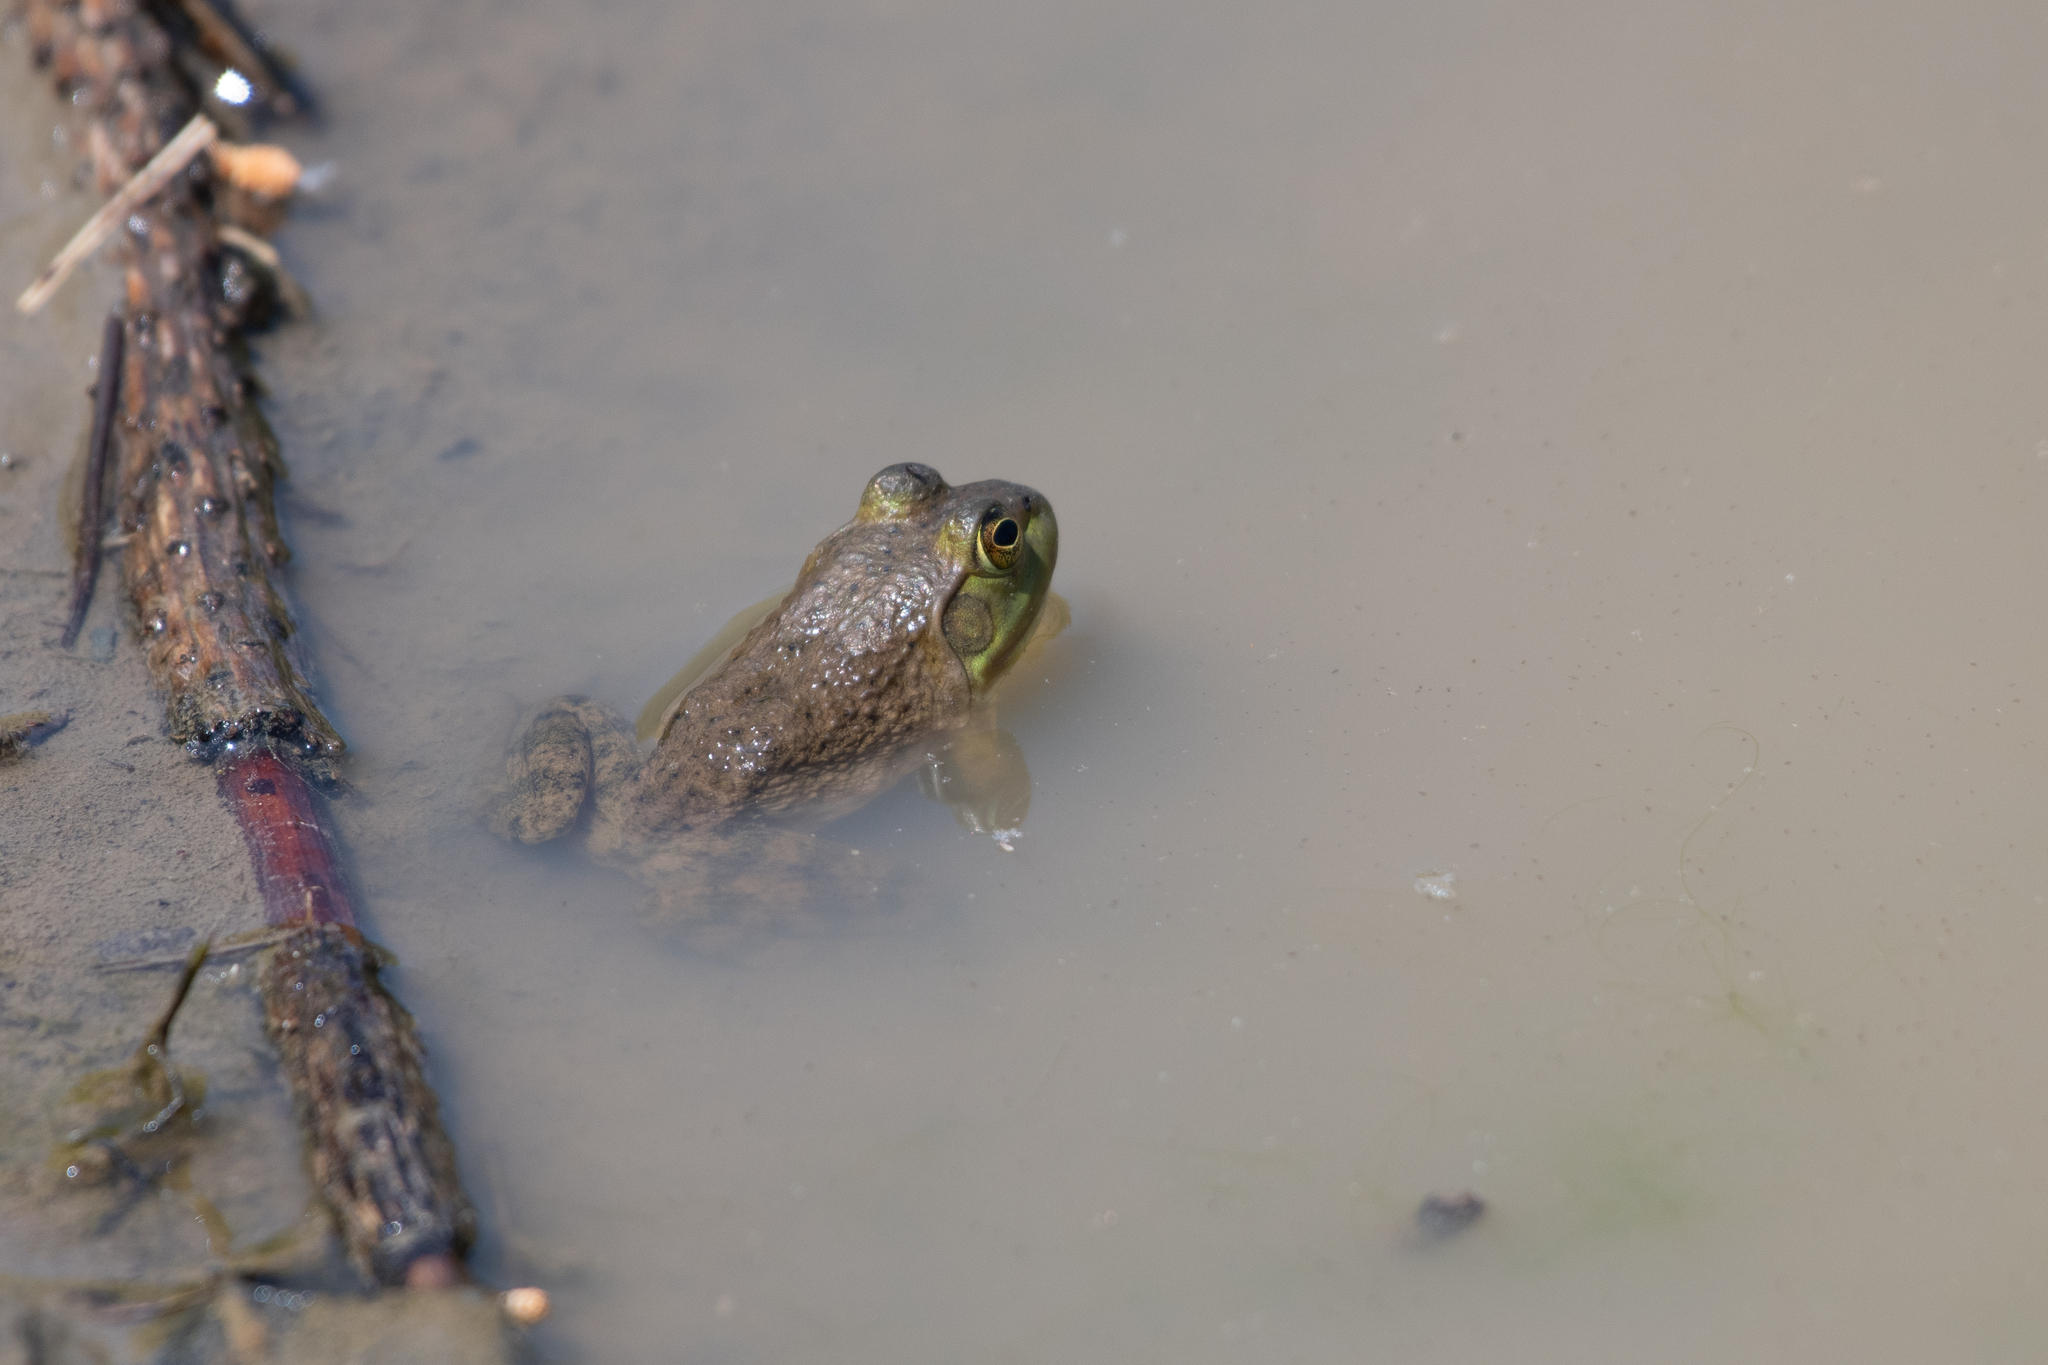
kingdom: Animalia
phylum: Chordata
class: Amphibia
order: Anura
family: Ranidae
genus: Lithobates
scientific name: Lithobates catesbeianus
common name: American bullfrog
